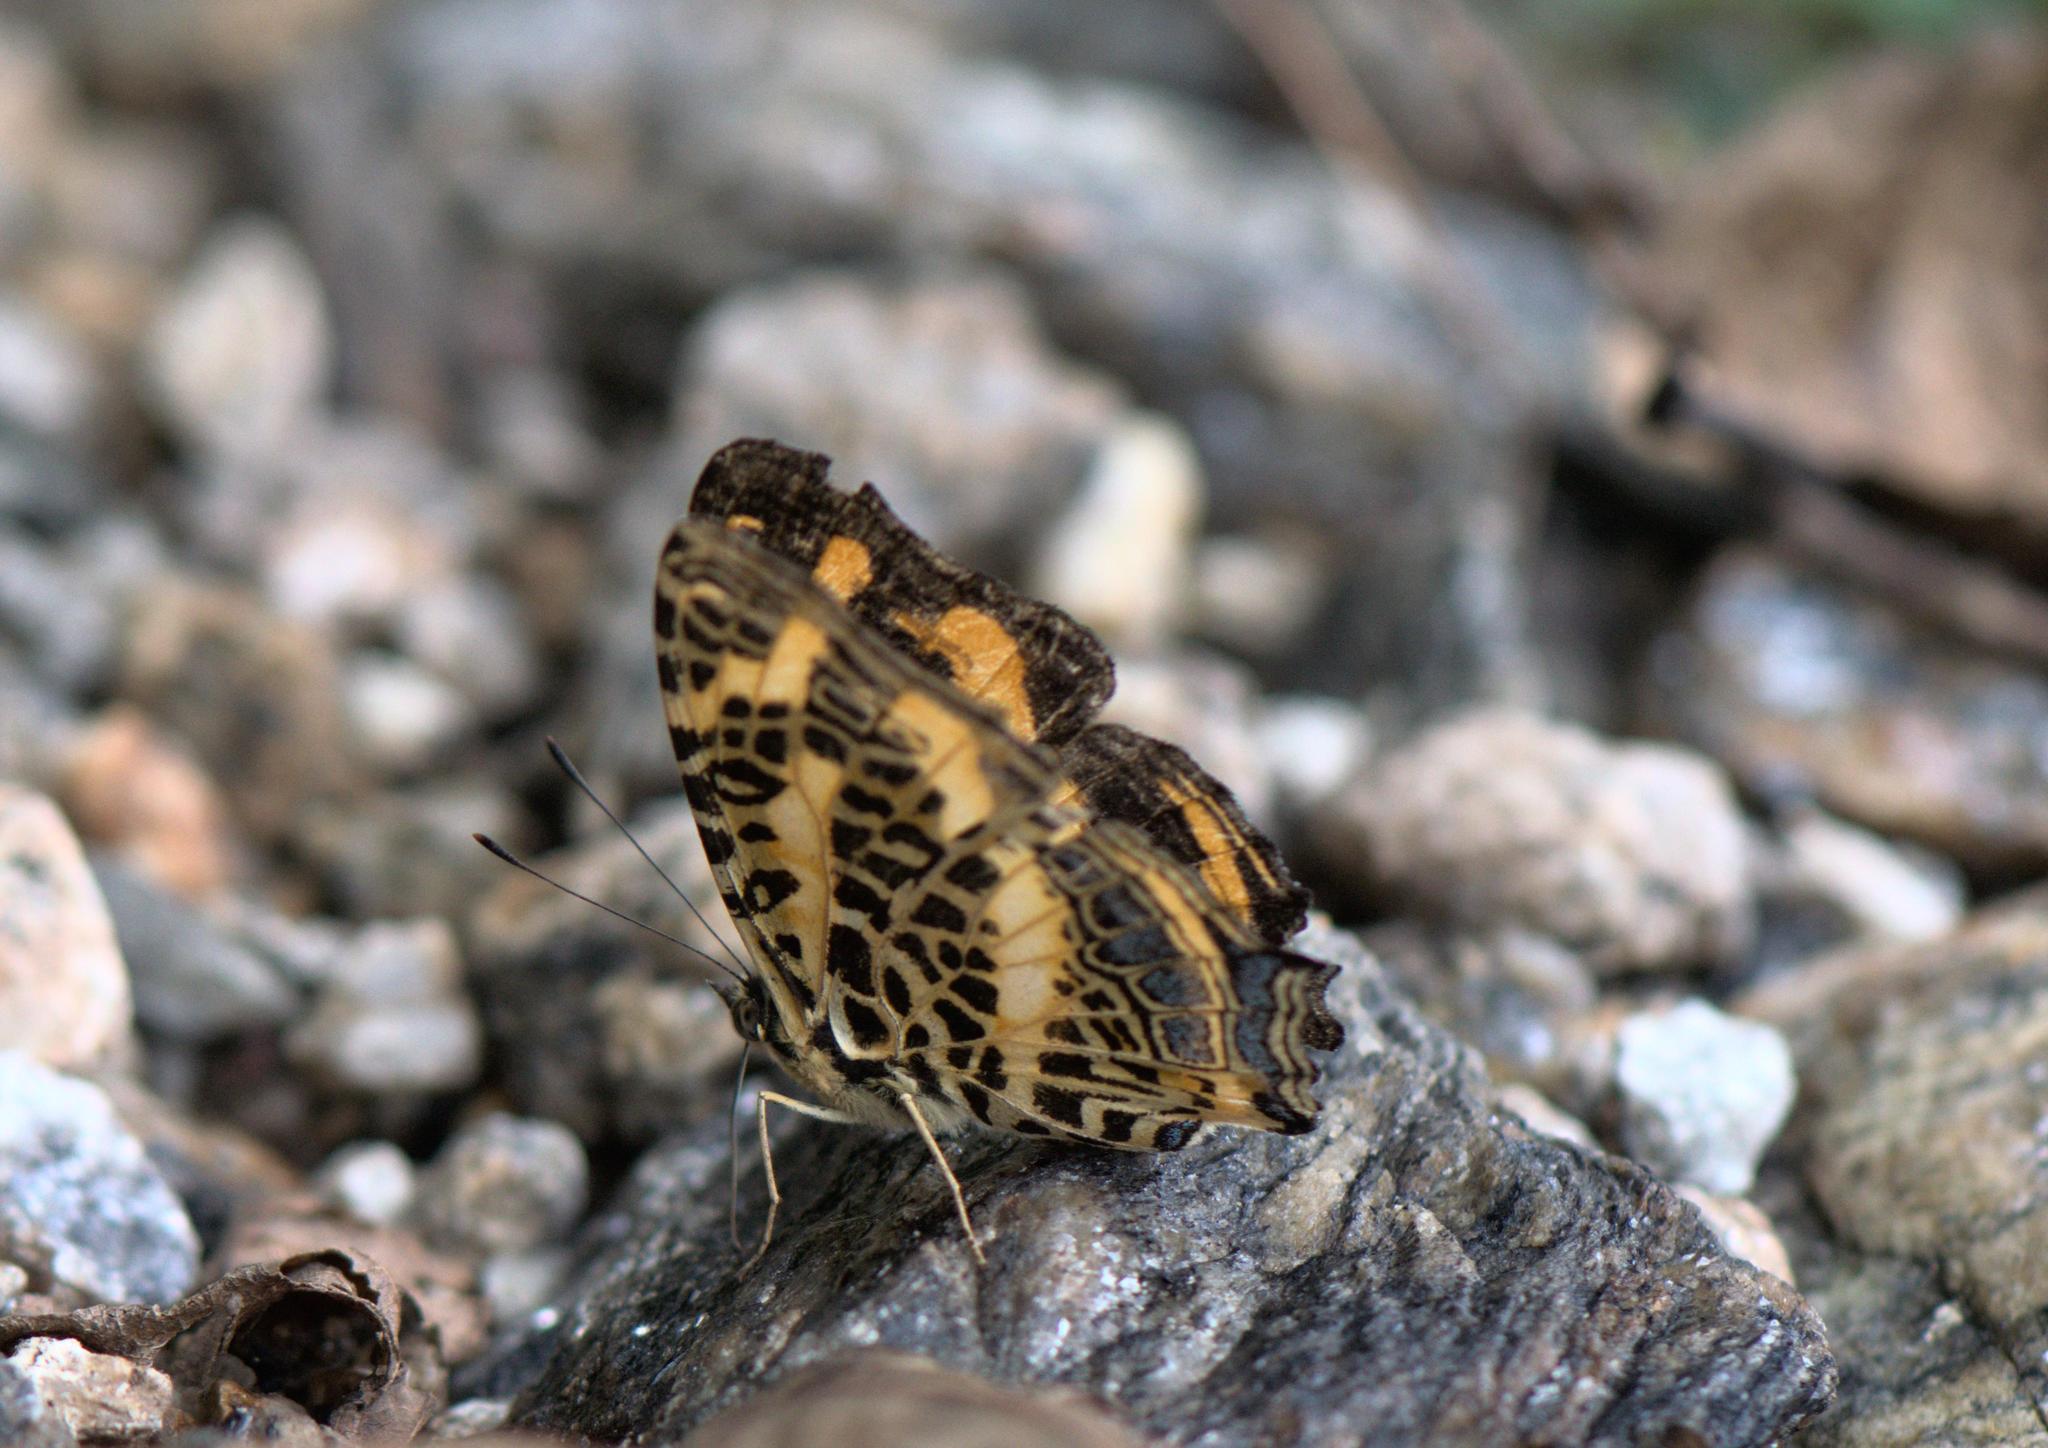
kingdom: Animalia
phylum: Arthropoda
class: Insecta
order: Lepidoptera
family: Nymphalidae
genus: Symbrenthia
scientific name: Symbrenthia niphanda
